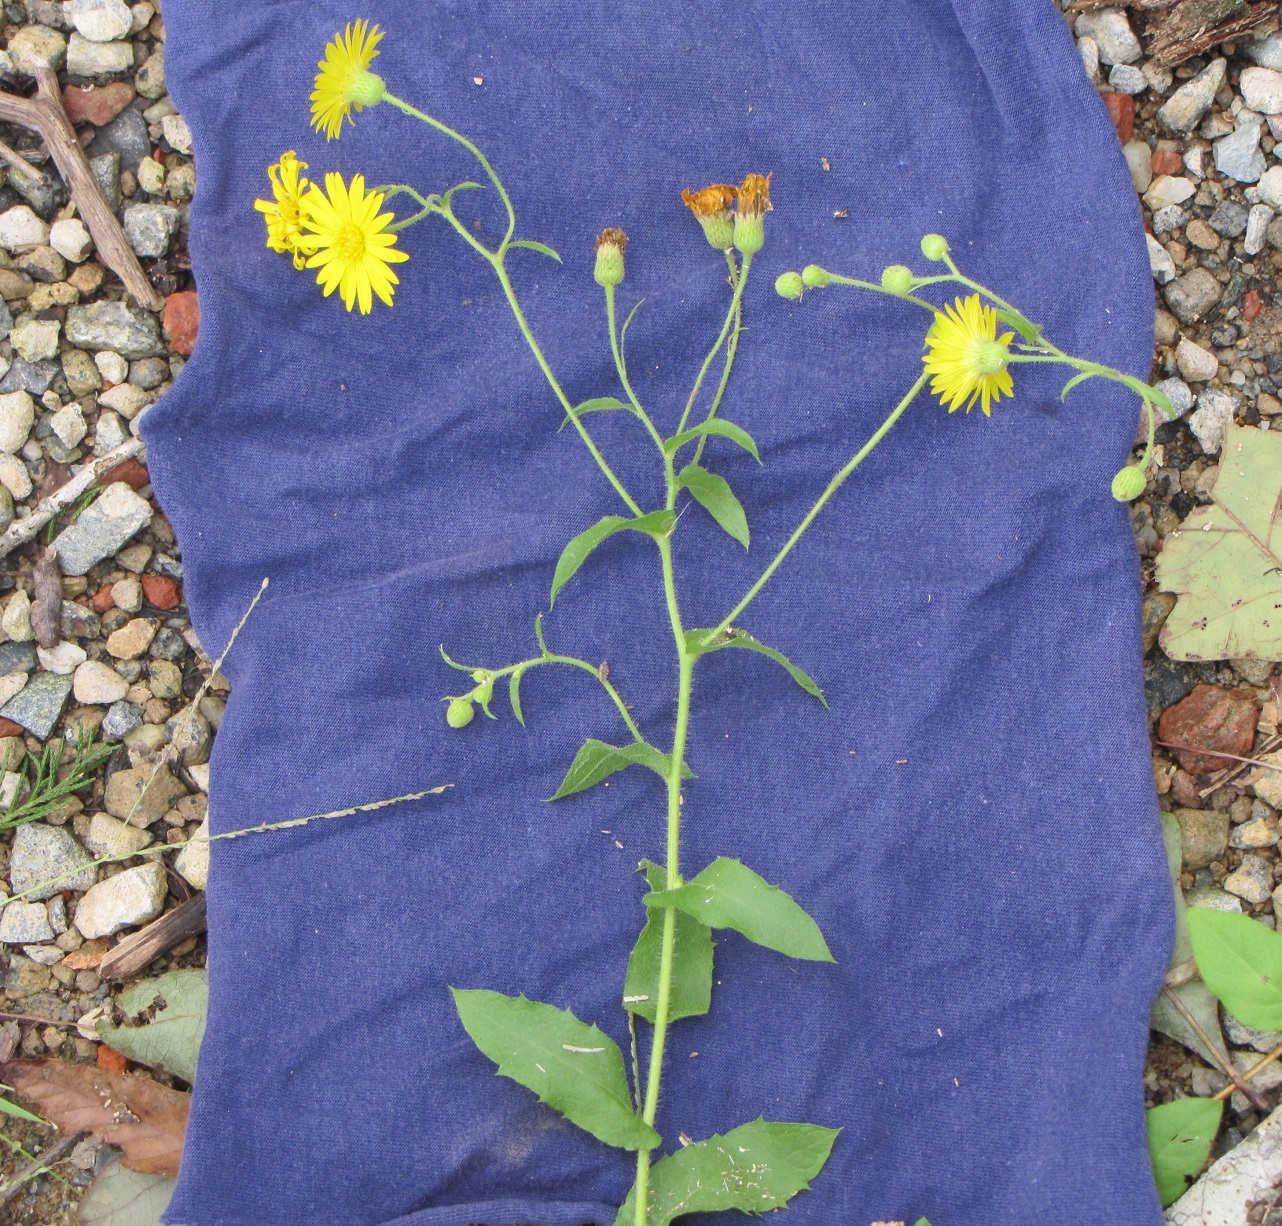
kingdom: Plantae
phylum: Tracheophyta
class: Magnoliopsida
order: Asterales
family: Asteraceae
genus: Heterotheca
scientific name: Heterotheca subaxillaris
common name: Camphorweed
